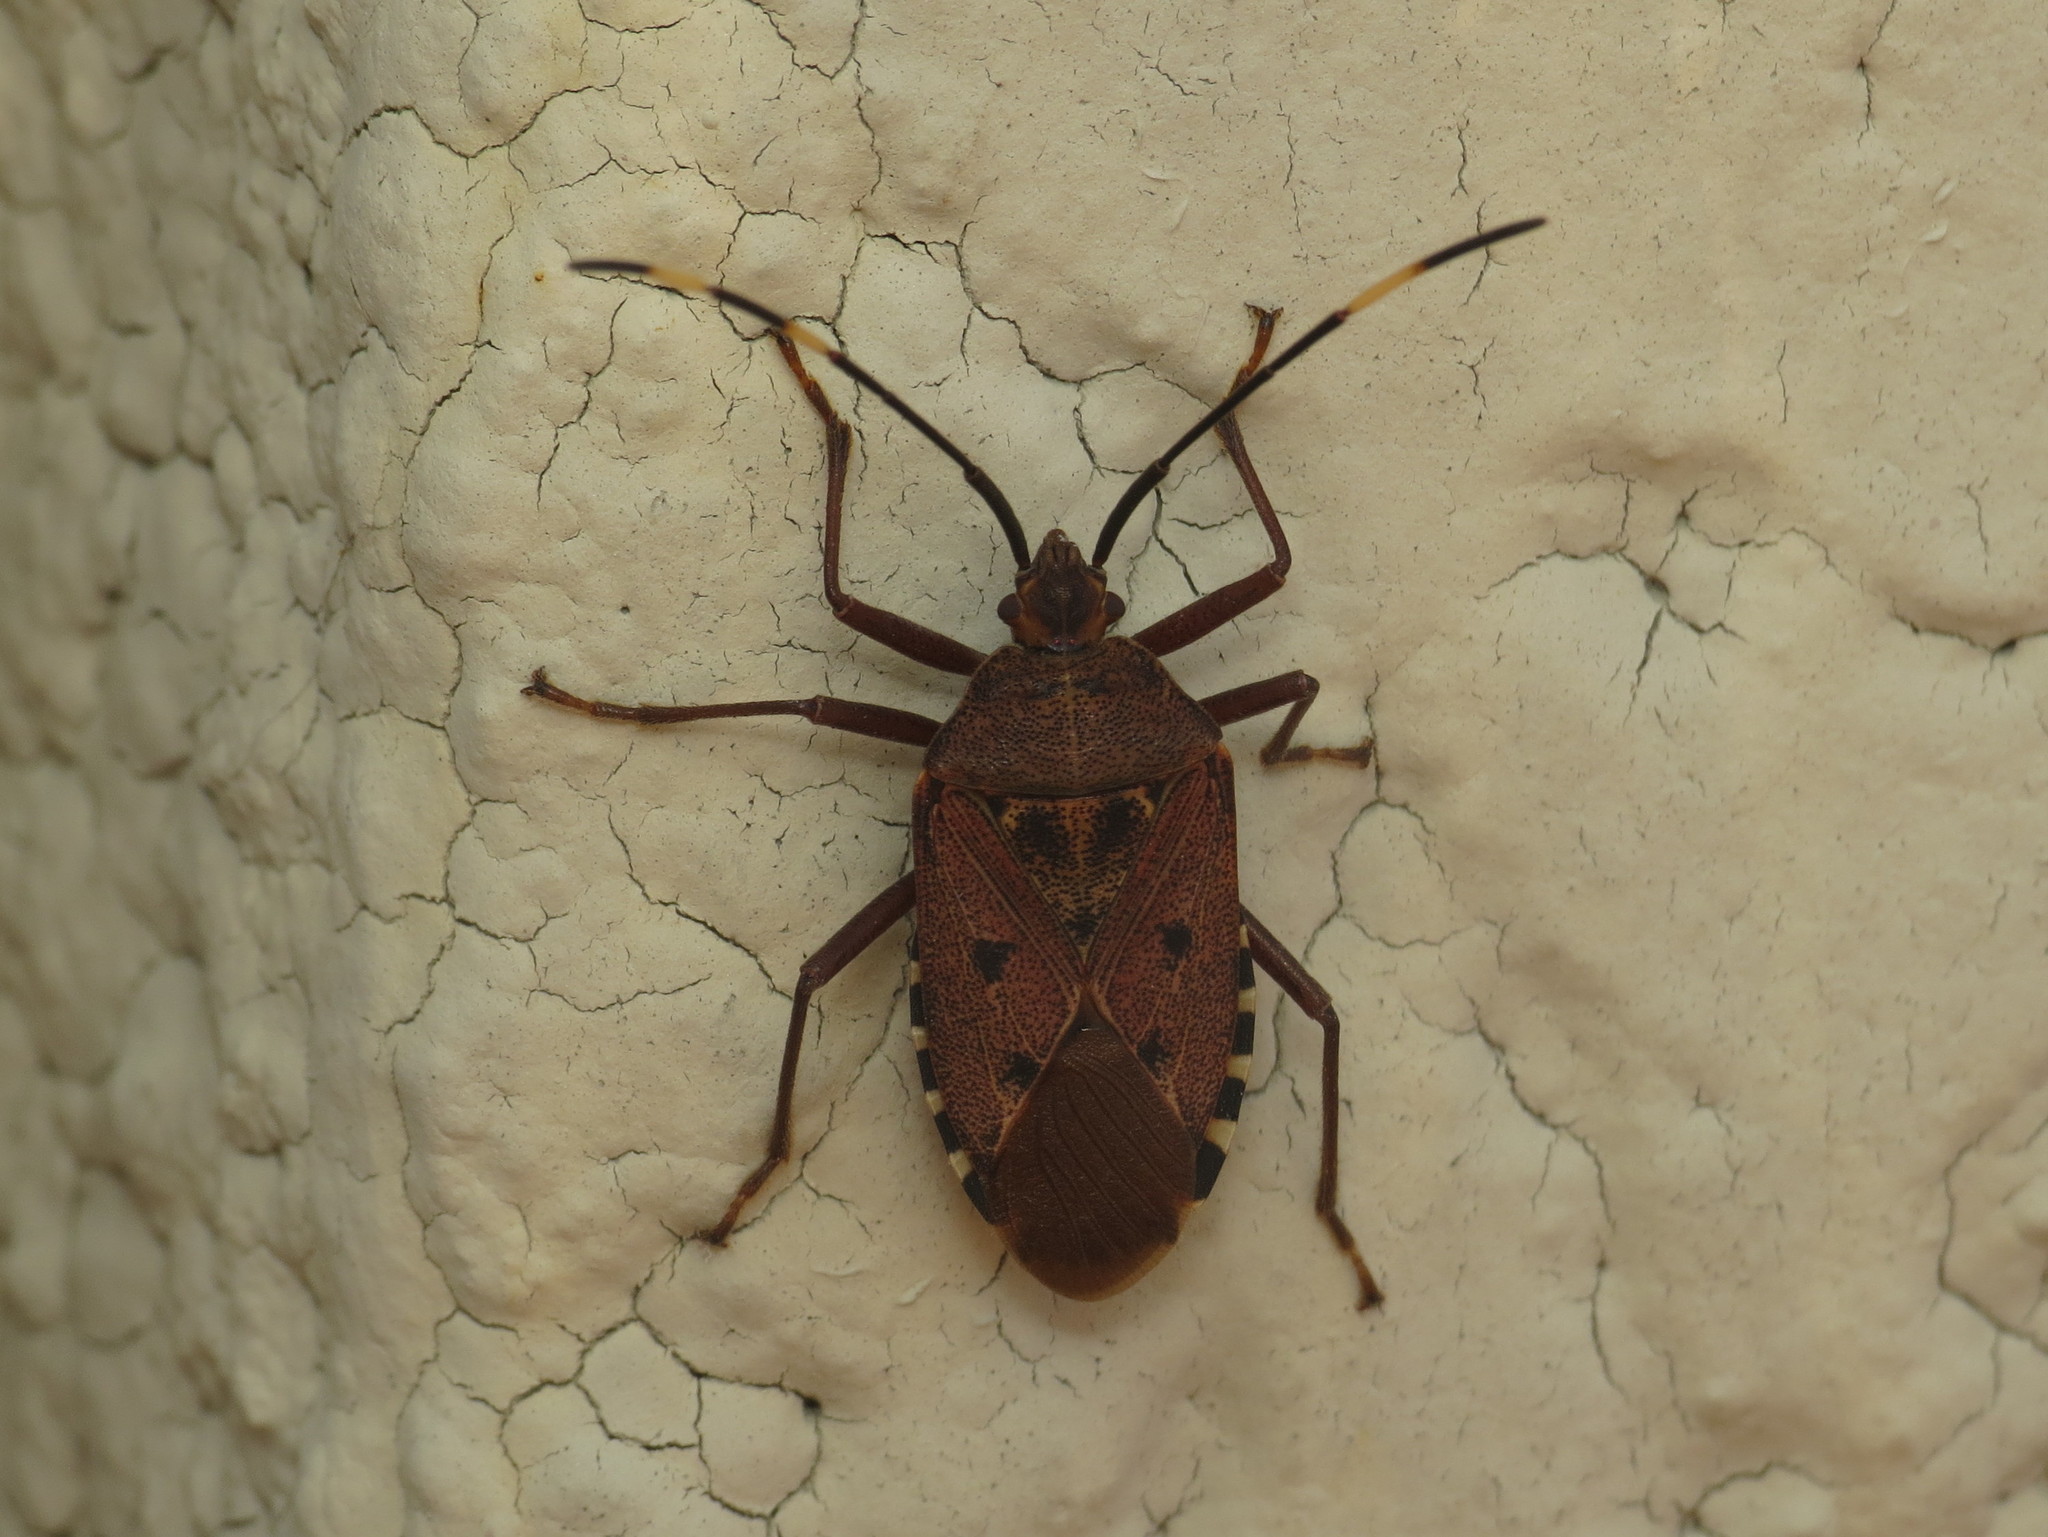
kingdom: Animalia
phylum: Arthropoda
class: Insecta
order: Hemiptera
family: Urostylididae
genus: Urochela
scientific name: Urochela quadrinotata
